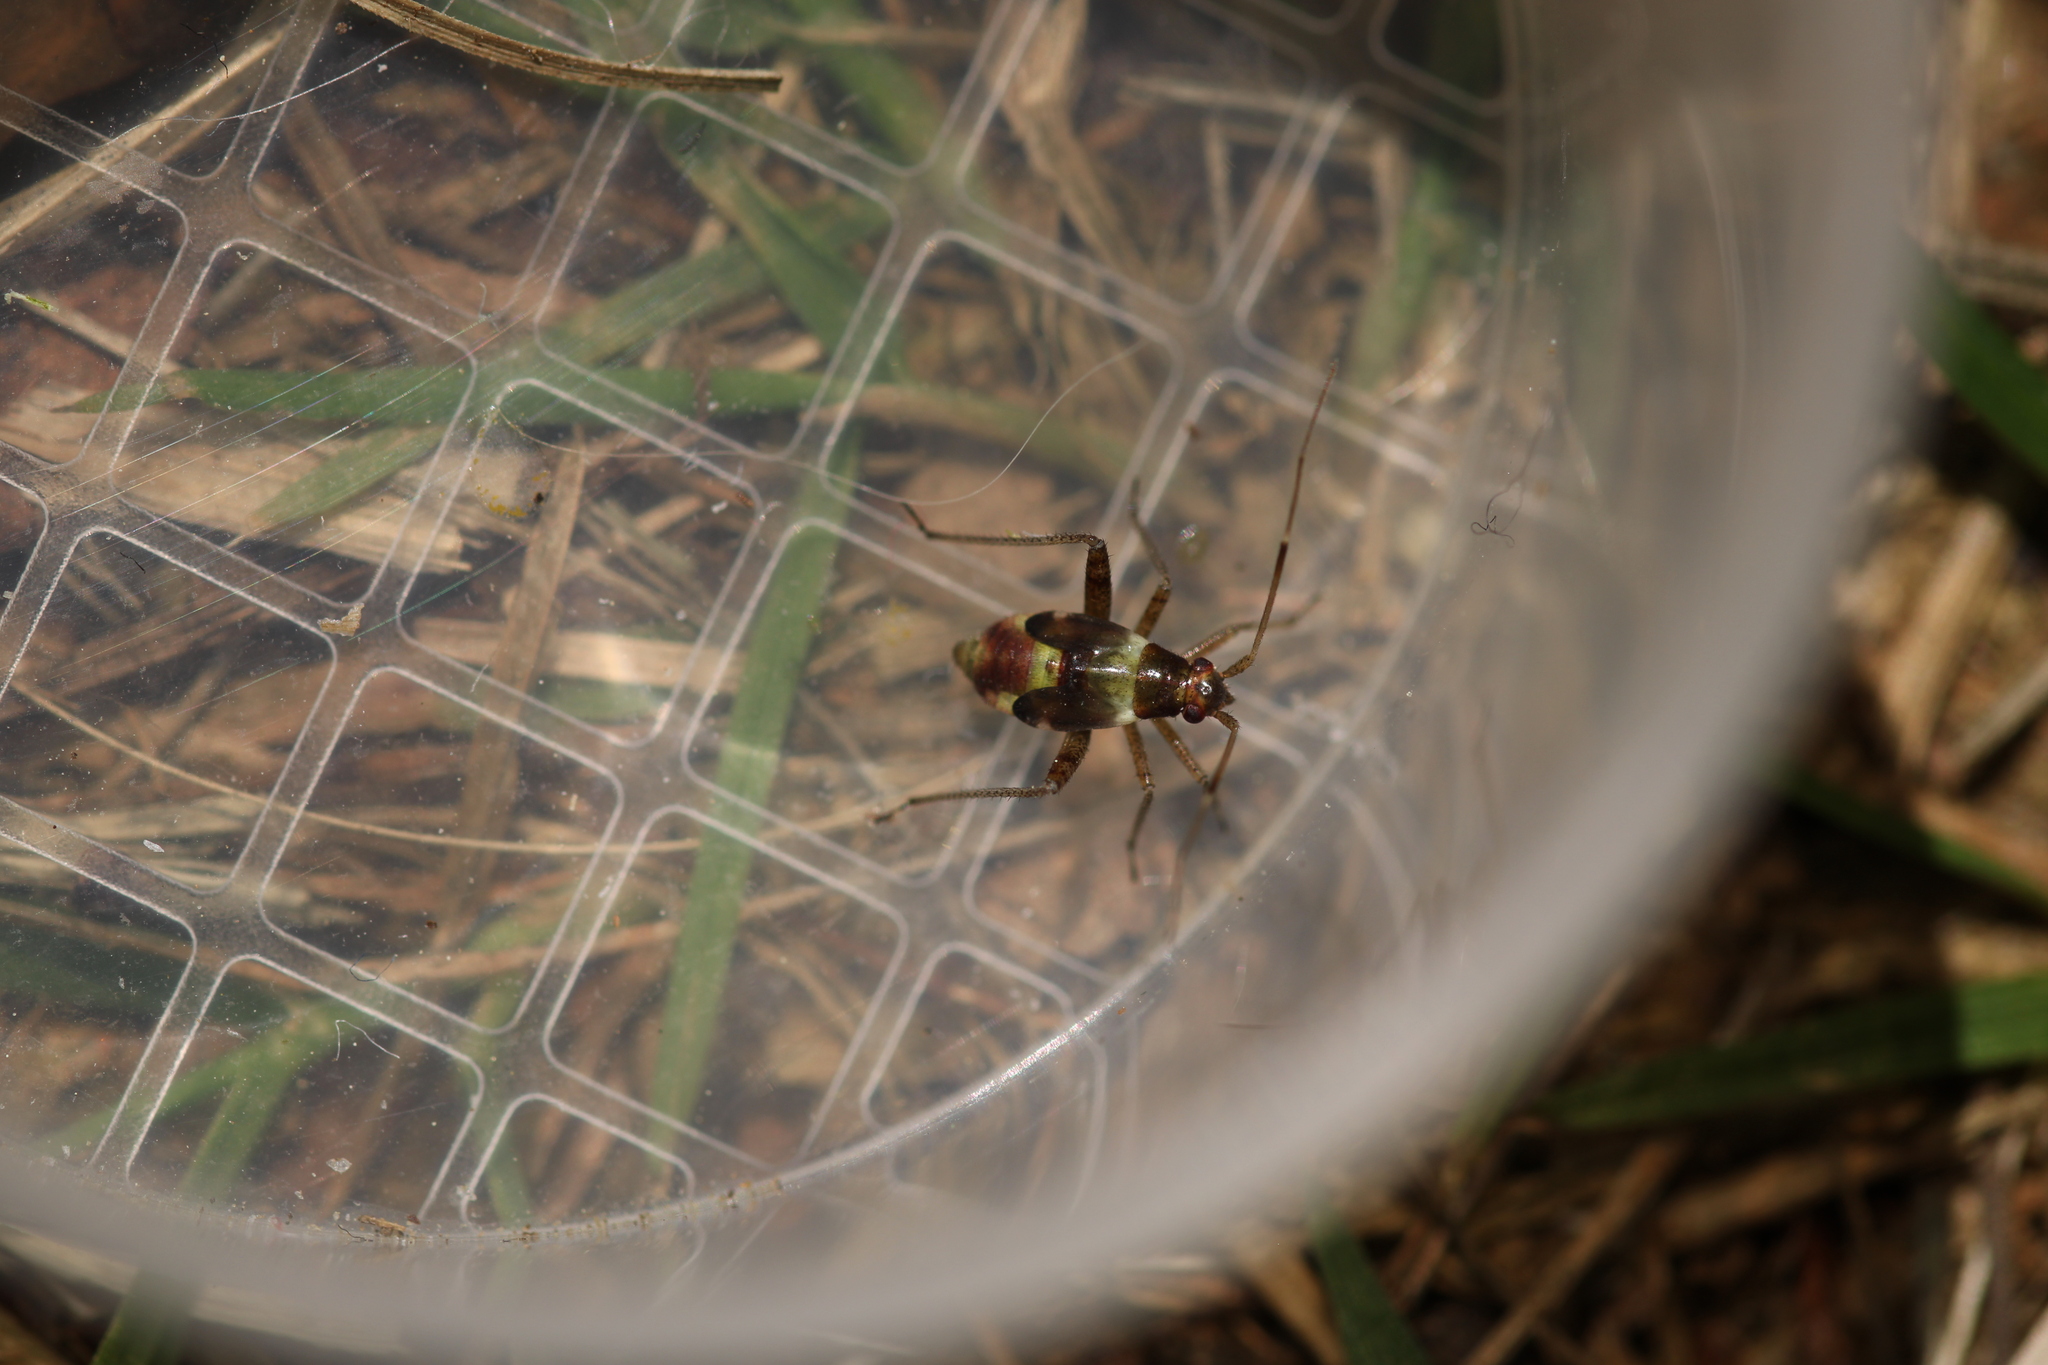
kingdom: Animalia
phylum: Arthropoda
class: Insecta
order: Hemiptera
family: Miridae
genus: Closterotomus
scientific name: Closterotomus fulvomaculatus
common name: Spotted plant bug
